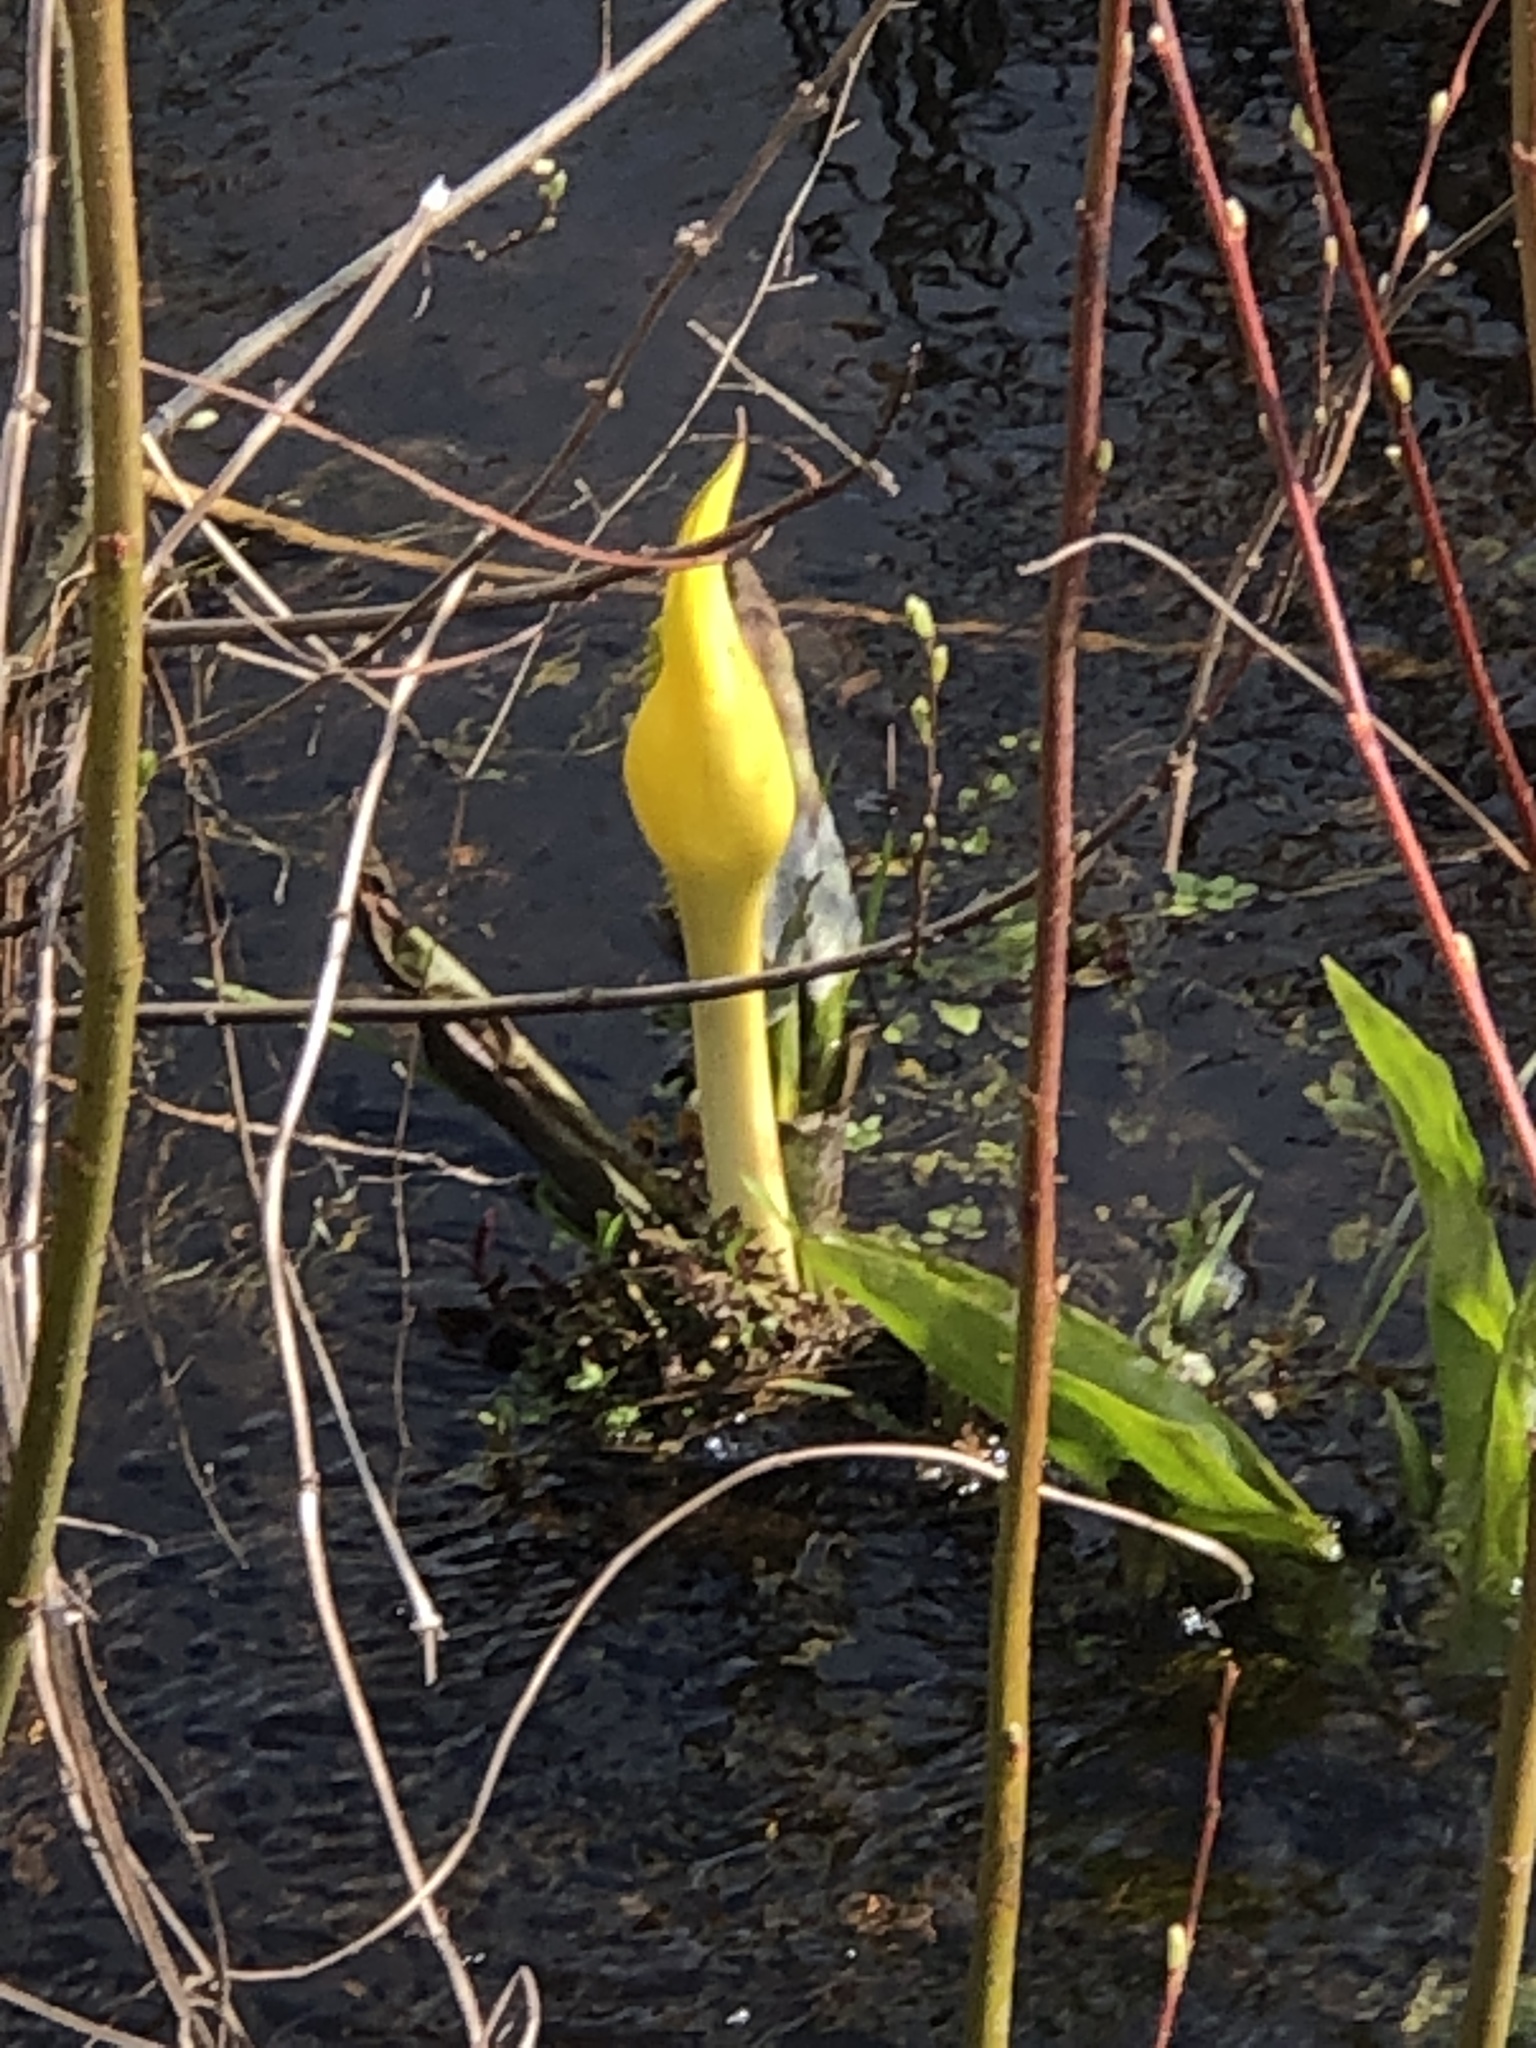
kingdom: Plantae
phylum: Tracheophyta
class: Liliopsida
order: Alismatales
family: Araceae
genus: Lysichiton
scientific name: Lysichiton americanus
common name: American skunk cabbage
